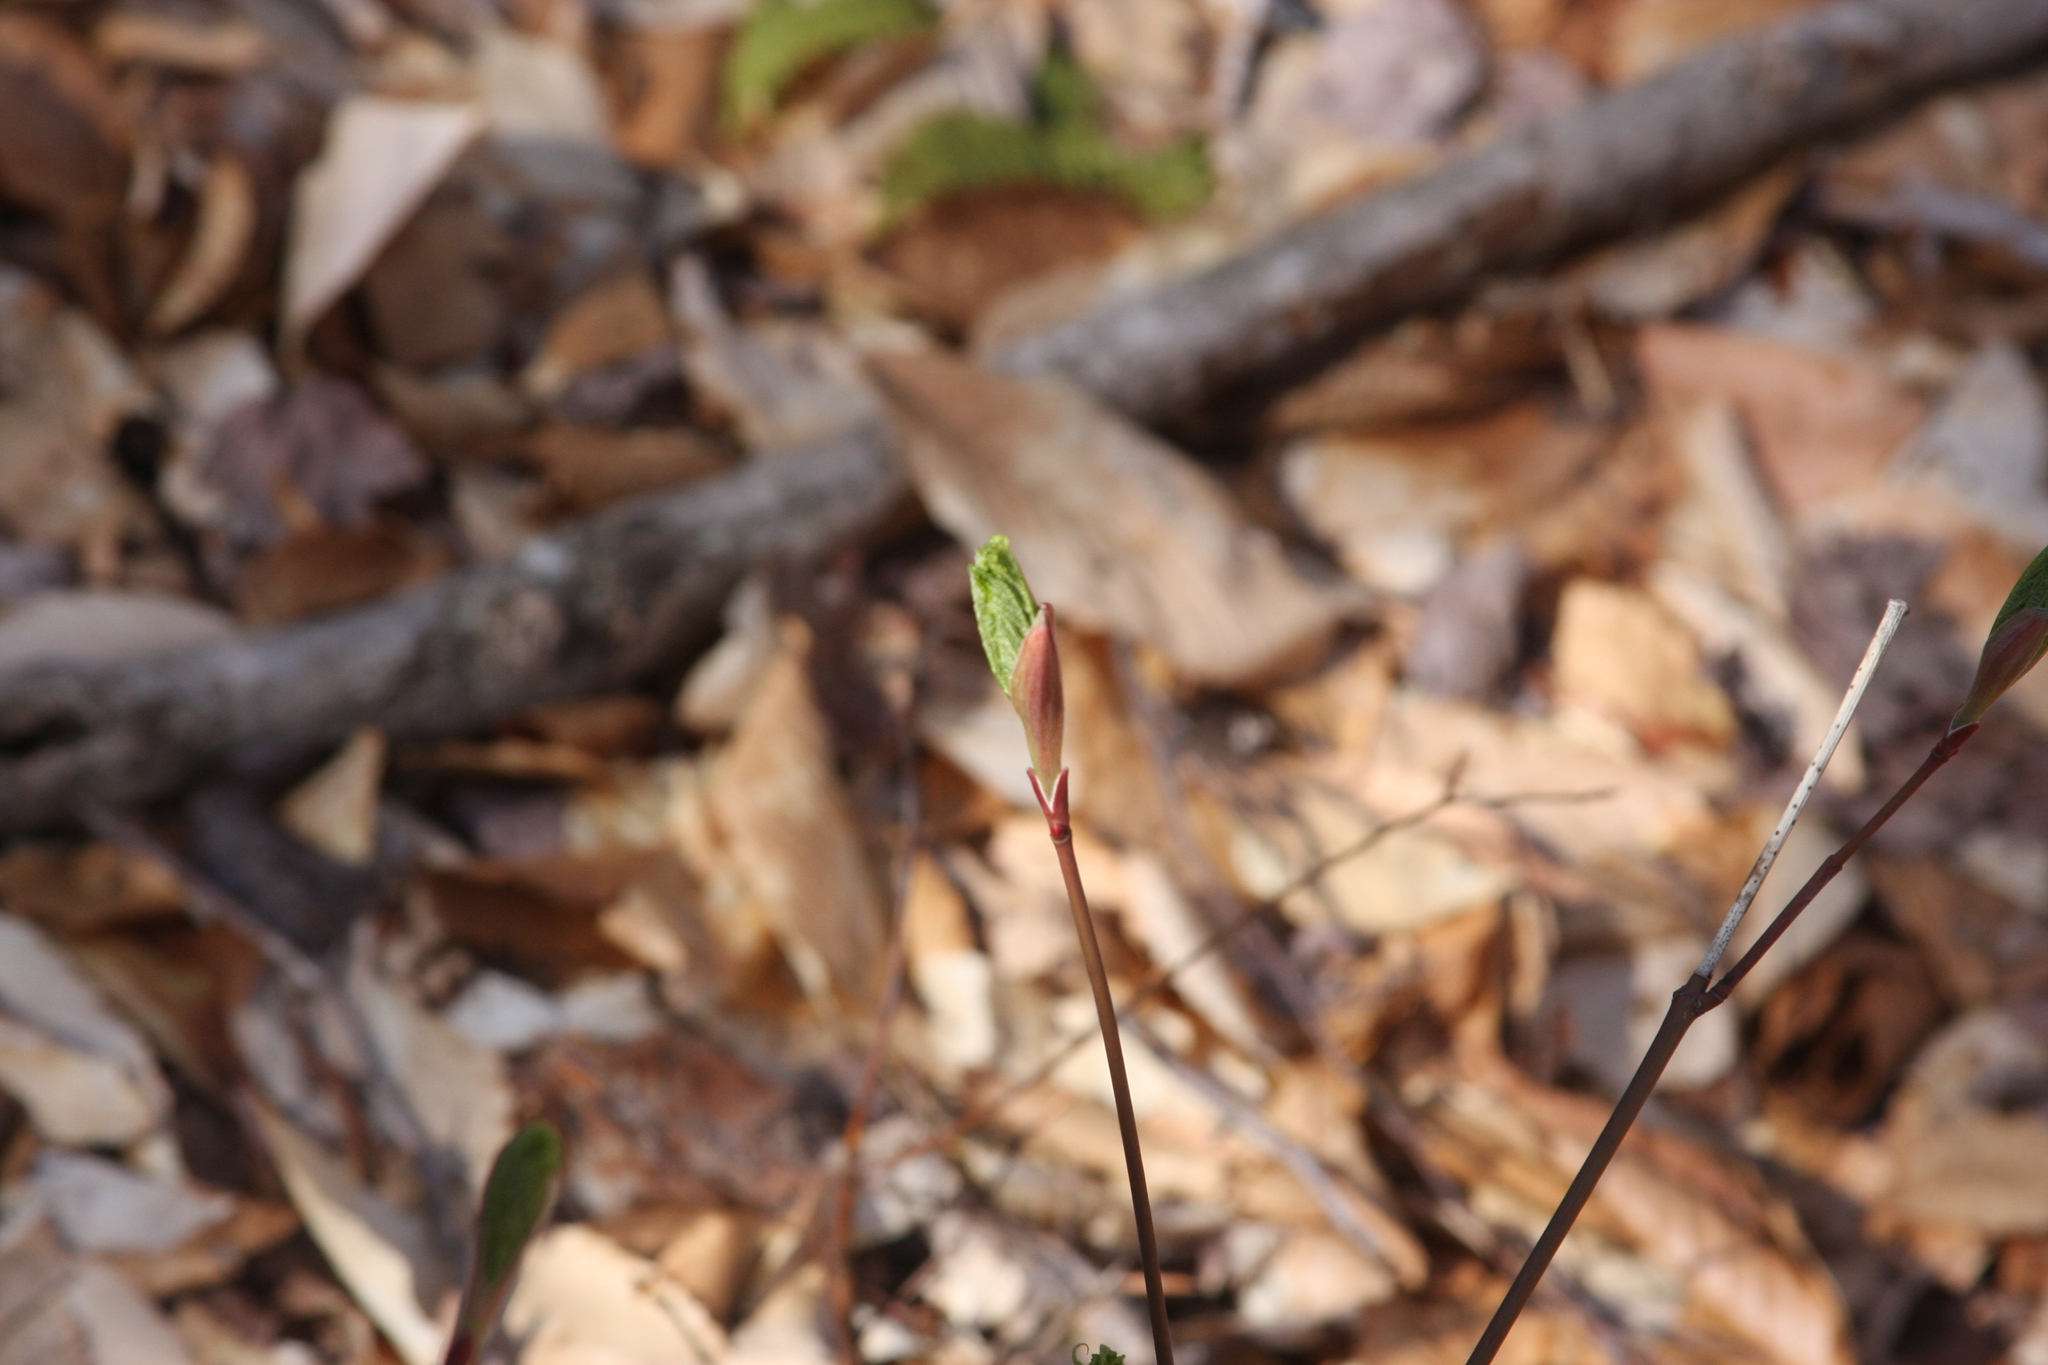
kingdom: Plantae
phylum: Tracheophyta
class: Magnoliopsida
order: Sapindales
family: Sapindaceae
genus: Acer
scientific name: Acer pensylvanicum
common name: Moosewood
